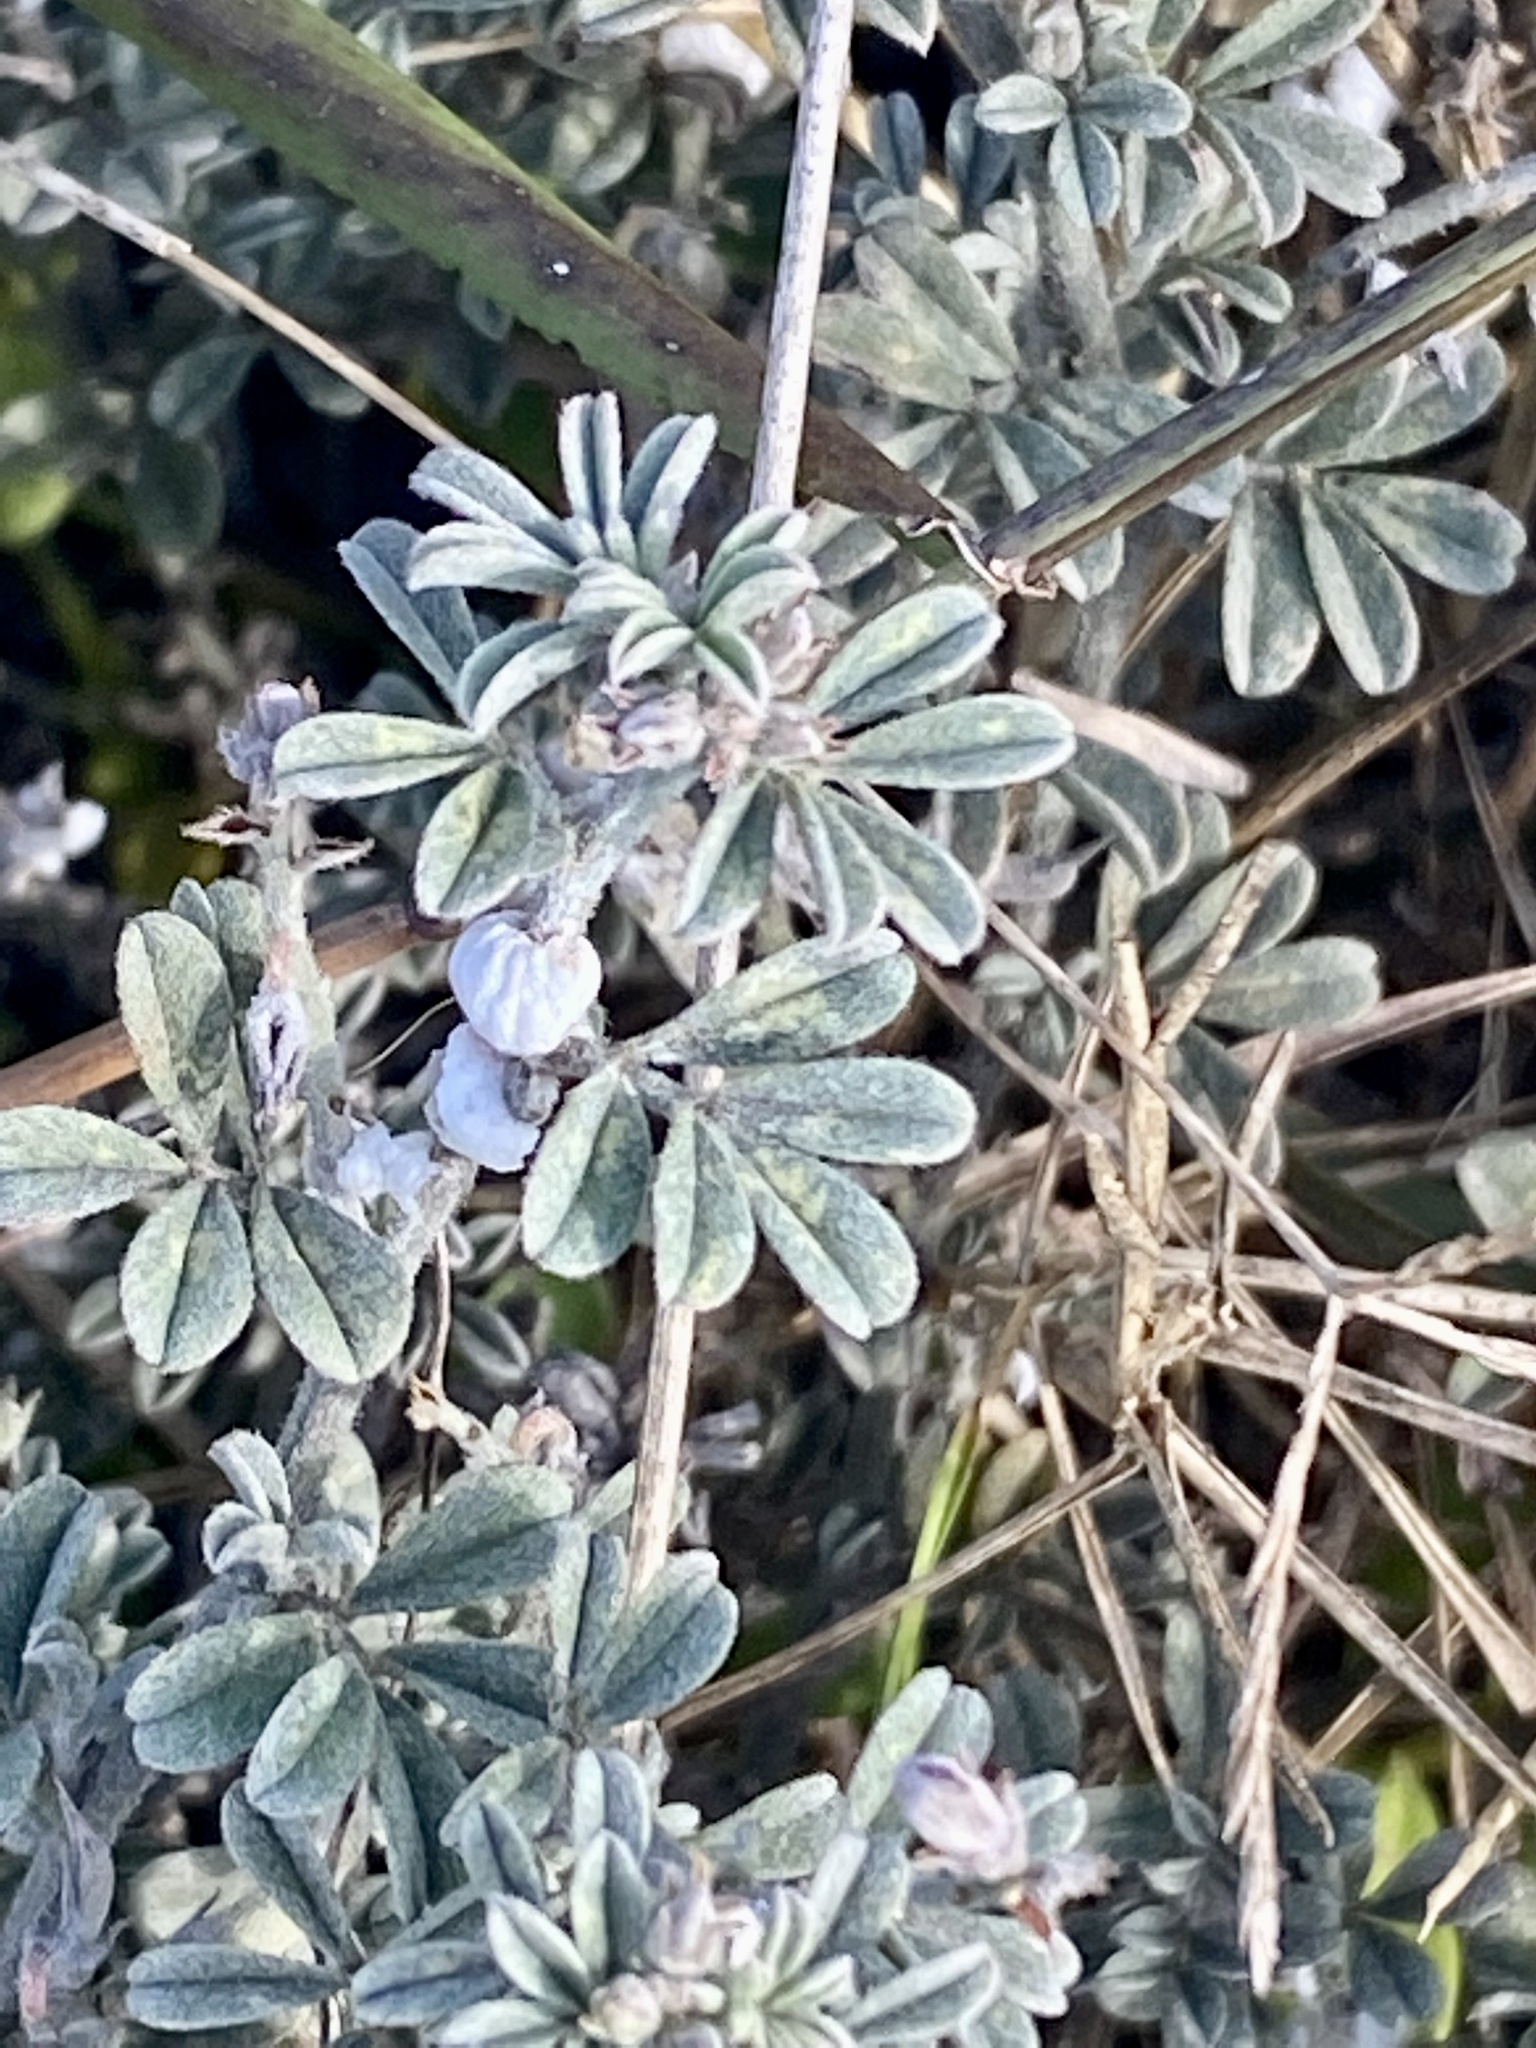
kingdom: Plantae
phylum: Tracheophyta
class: Magnoliopsida
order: Fabales
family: Fabaceae
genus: Indigofera
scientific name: Indigofera priorii
